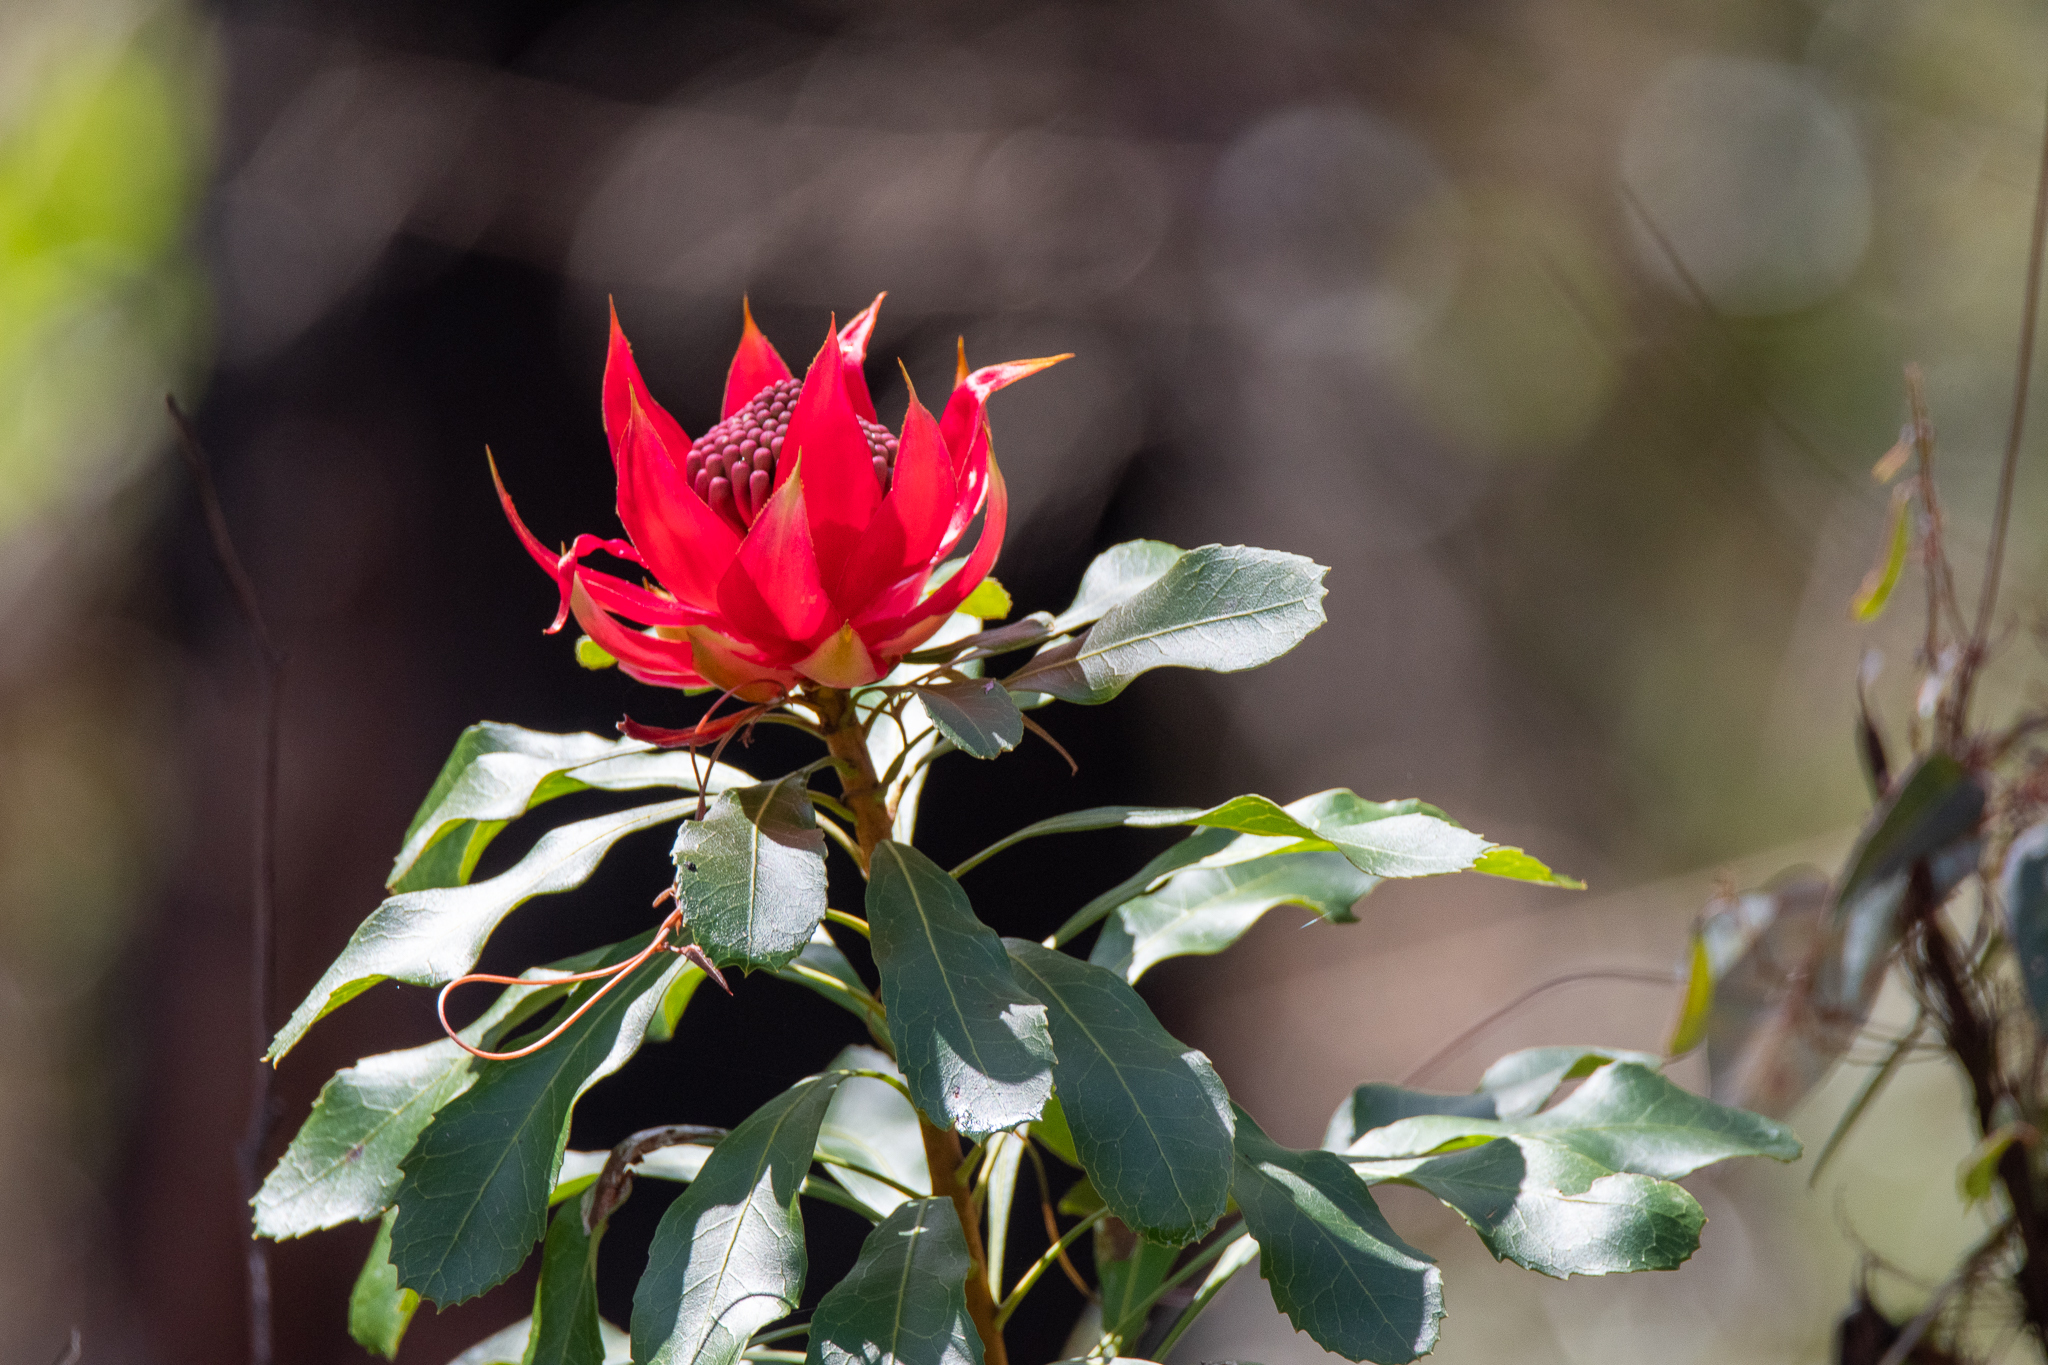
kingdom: Plantae
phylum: Tracheophyta
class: Magnoliopsida
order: Proteales
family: Proteaceae
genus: Telopea
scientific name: Telopea speciosissima
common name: New south wales waratah
